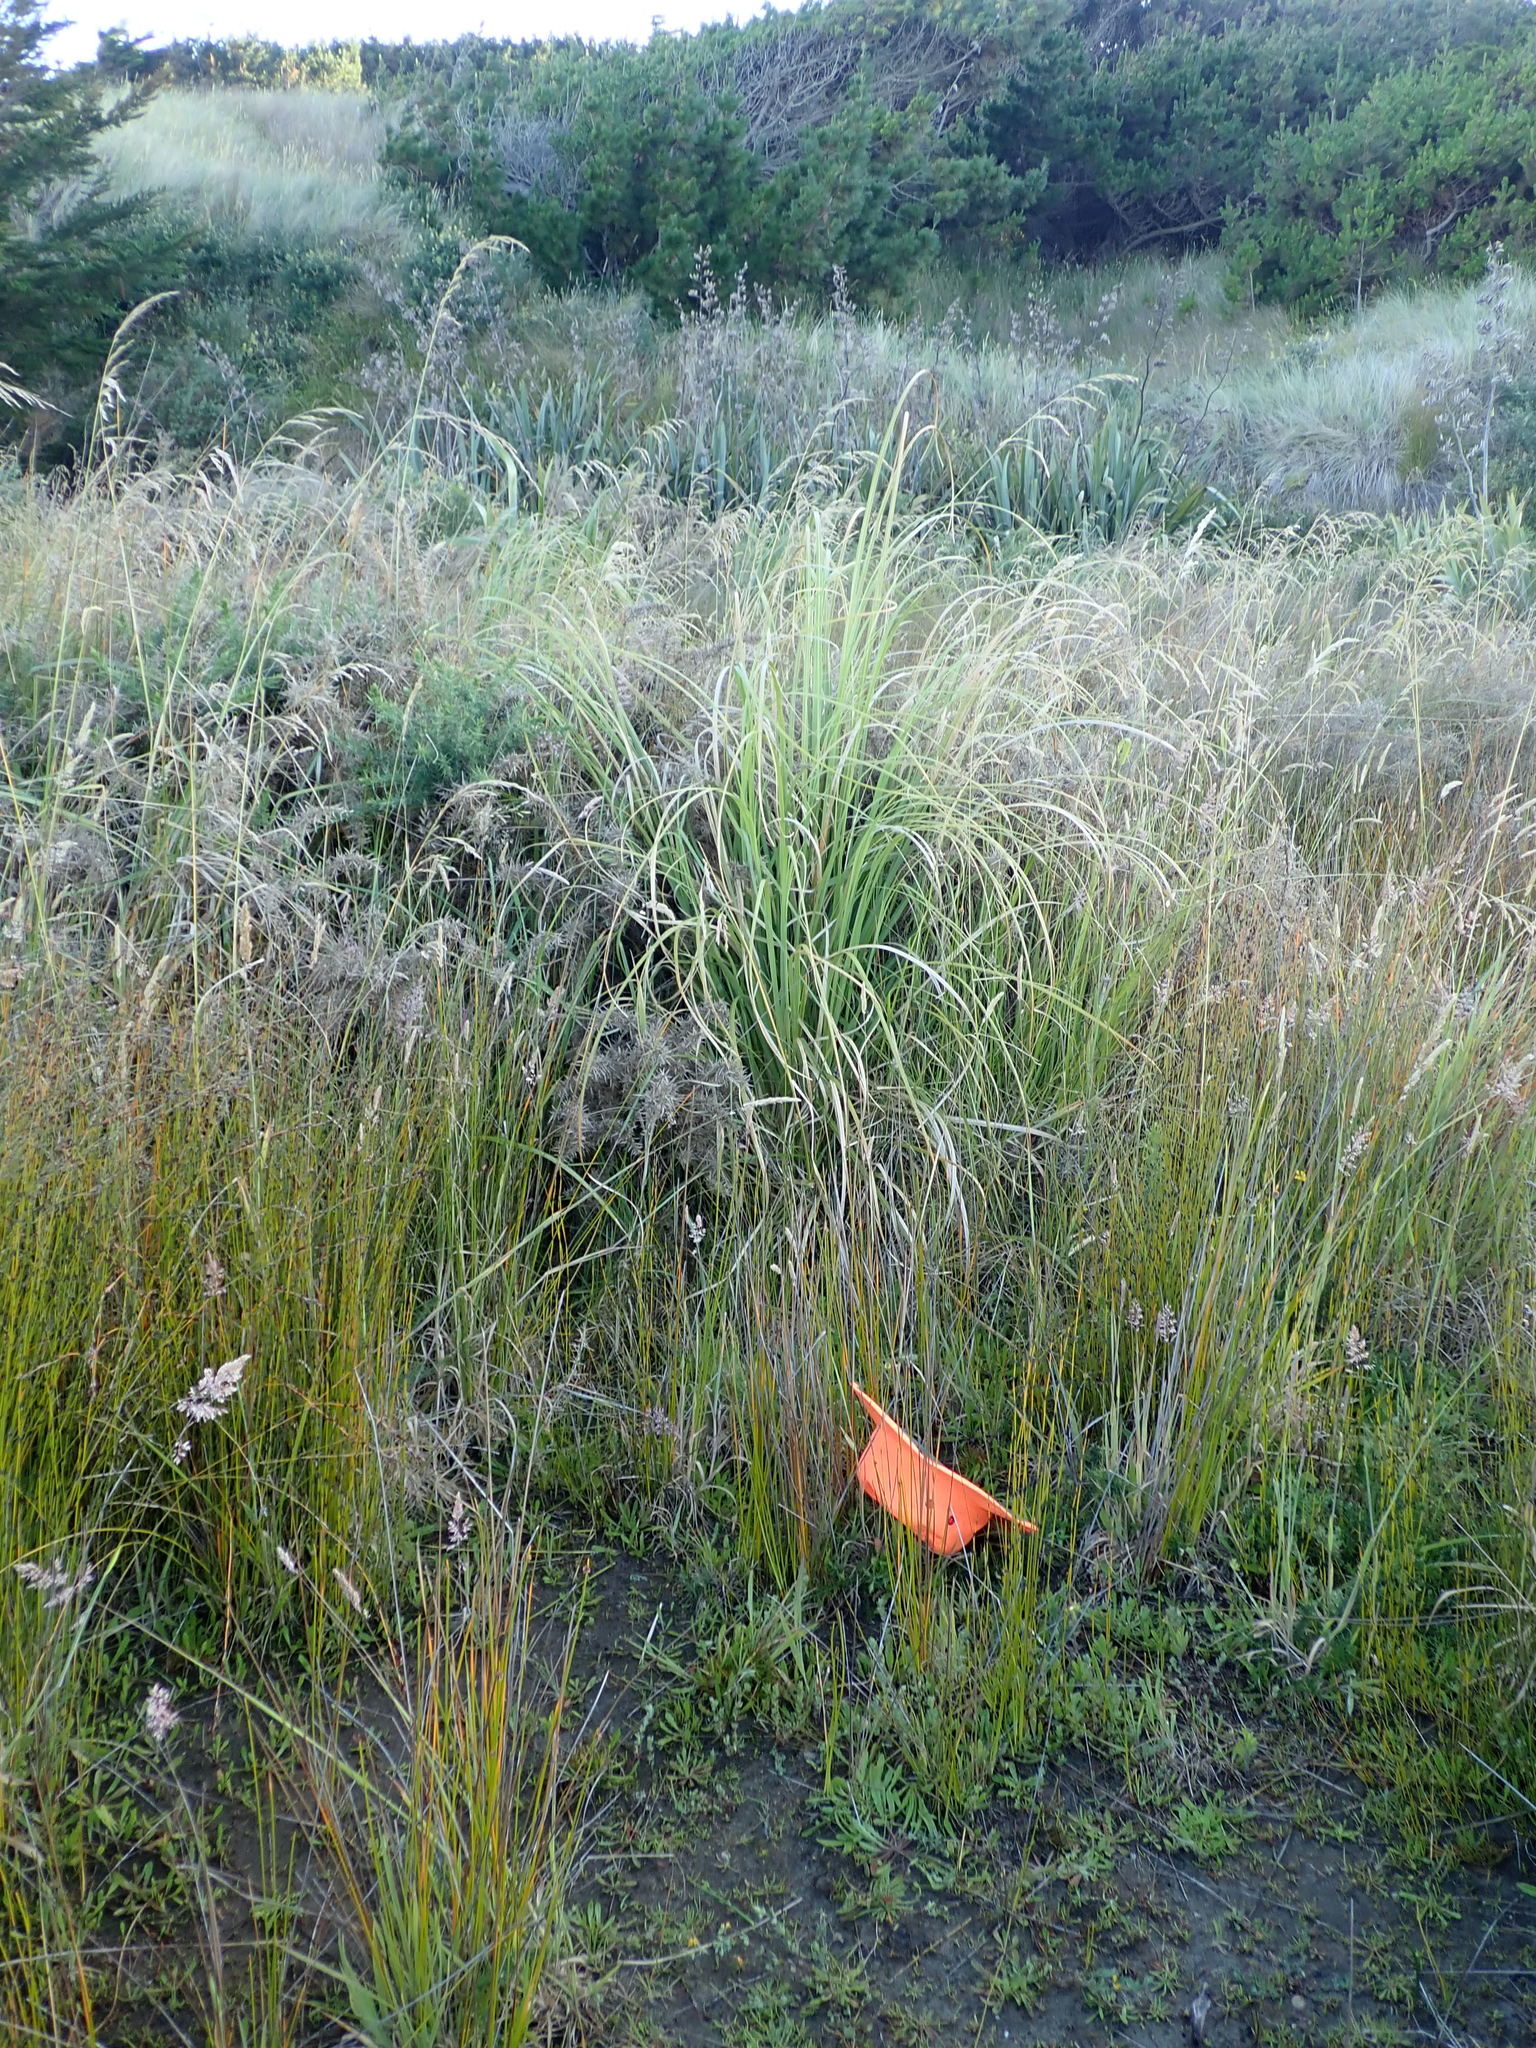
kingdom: Plantae
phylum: Tracheophyta
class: Magnoliopsida
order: Caryophyllales
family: Caryophyllaceae
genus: Sagina
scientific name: Sagina procumbens
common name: Procumbent pearlwort
